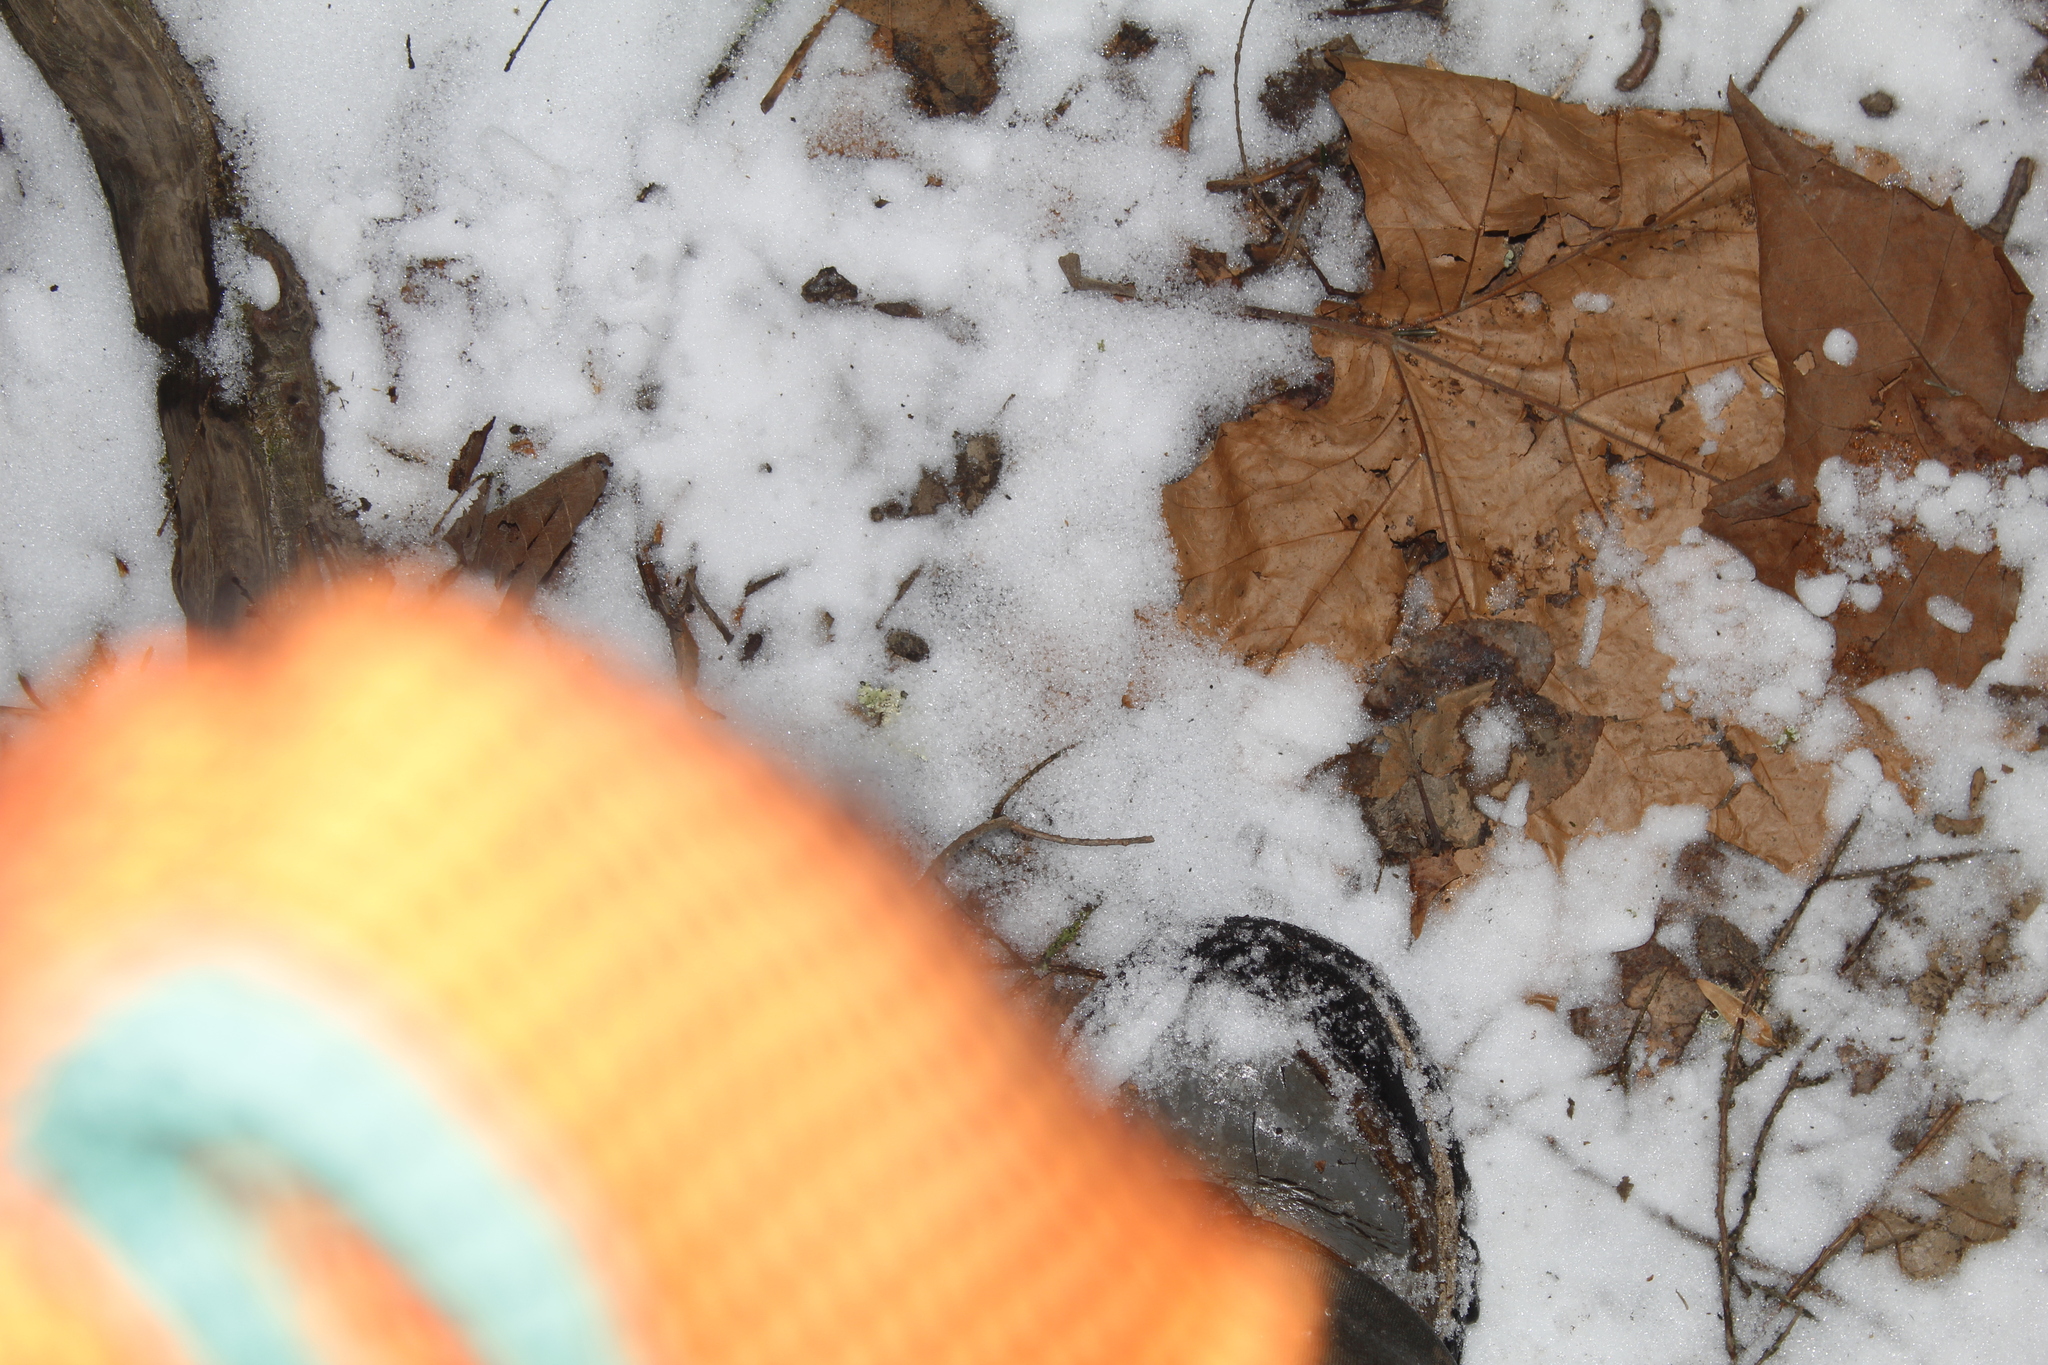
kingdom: Plantae
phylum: Tracheophyta
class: Magnoliopsida
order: Proteales
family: Platanaceae
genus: Platanus
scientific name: Platanus occidentalis
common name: American sycamore
